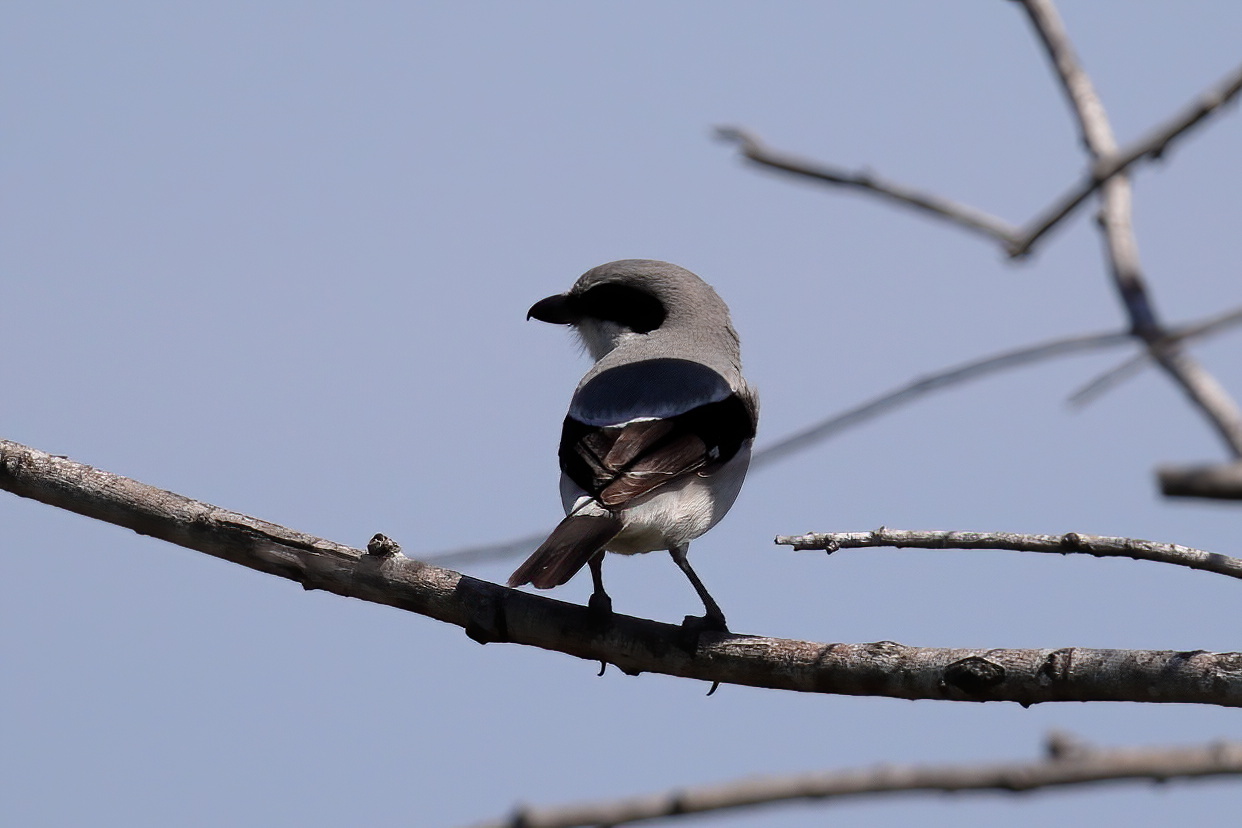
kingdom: Animalia
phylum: Chordata
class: Aves
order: Passeriformes
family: Laniidae
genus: Lanius
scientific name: Lanius ludovicianus
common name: Loggerhead shrike
